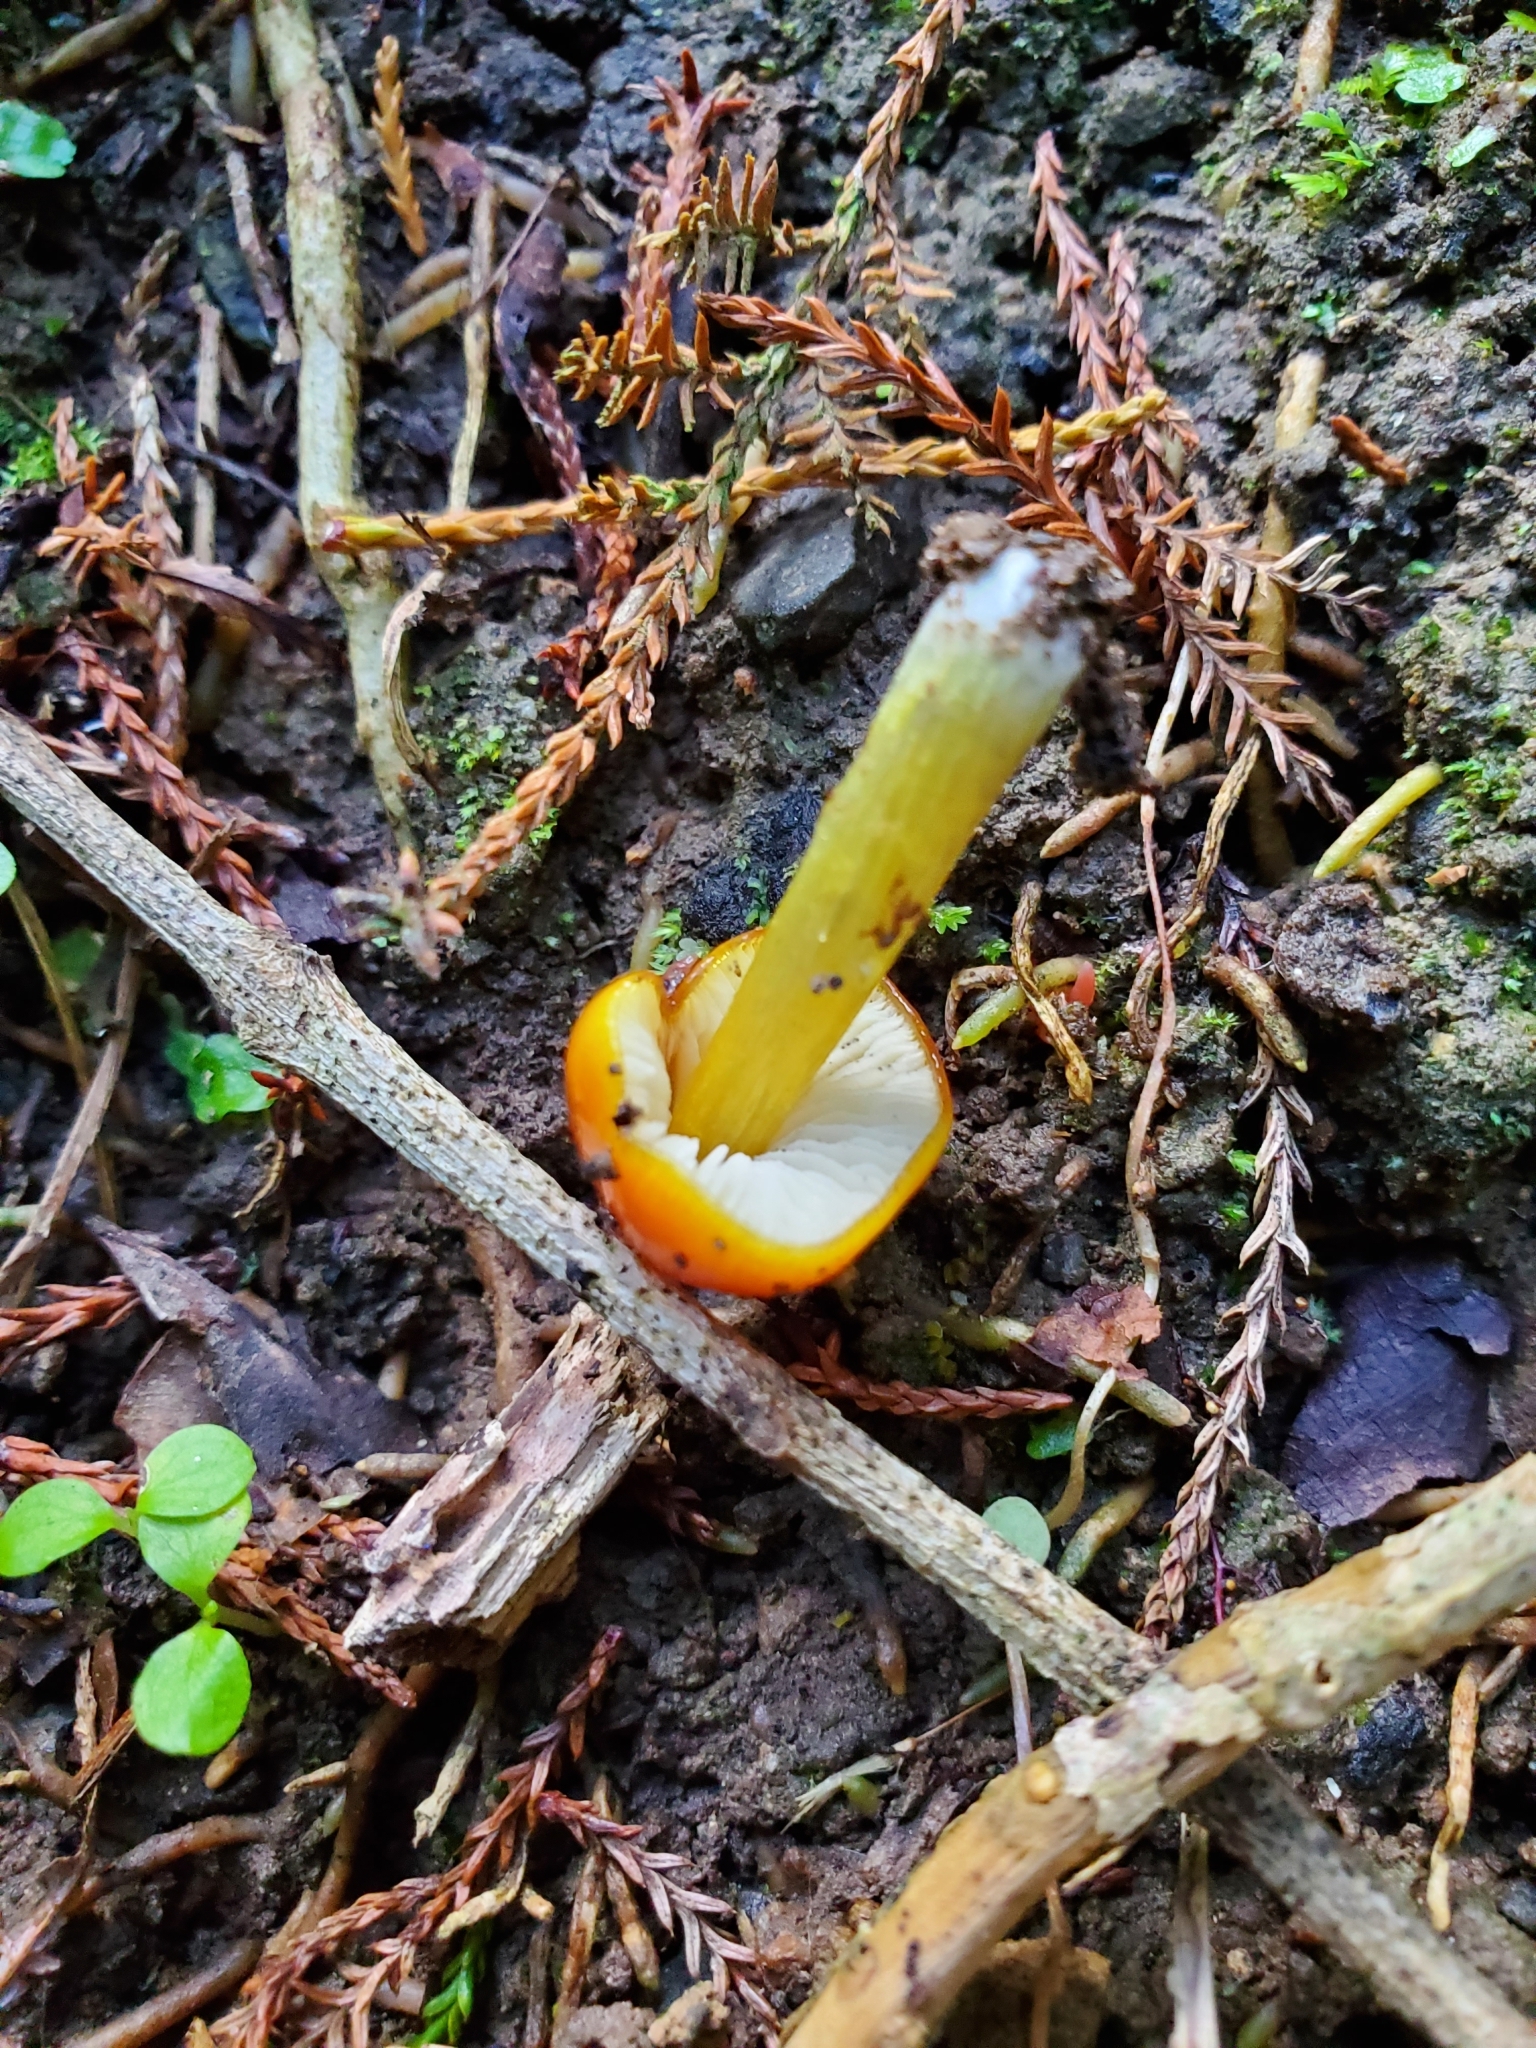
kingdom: Fungi
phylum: Basidiomycota
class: Agaricomycetes
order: Agaricales
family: Hygrophoraceae
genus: Hygrocybe
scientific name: Hygrocybe conica
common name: Blackening wax-cap
